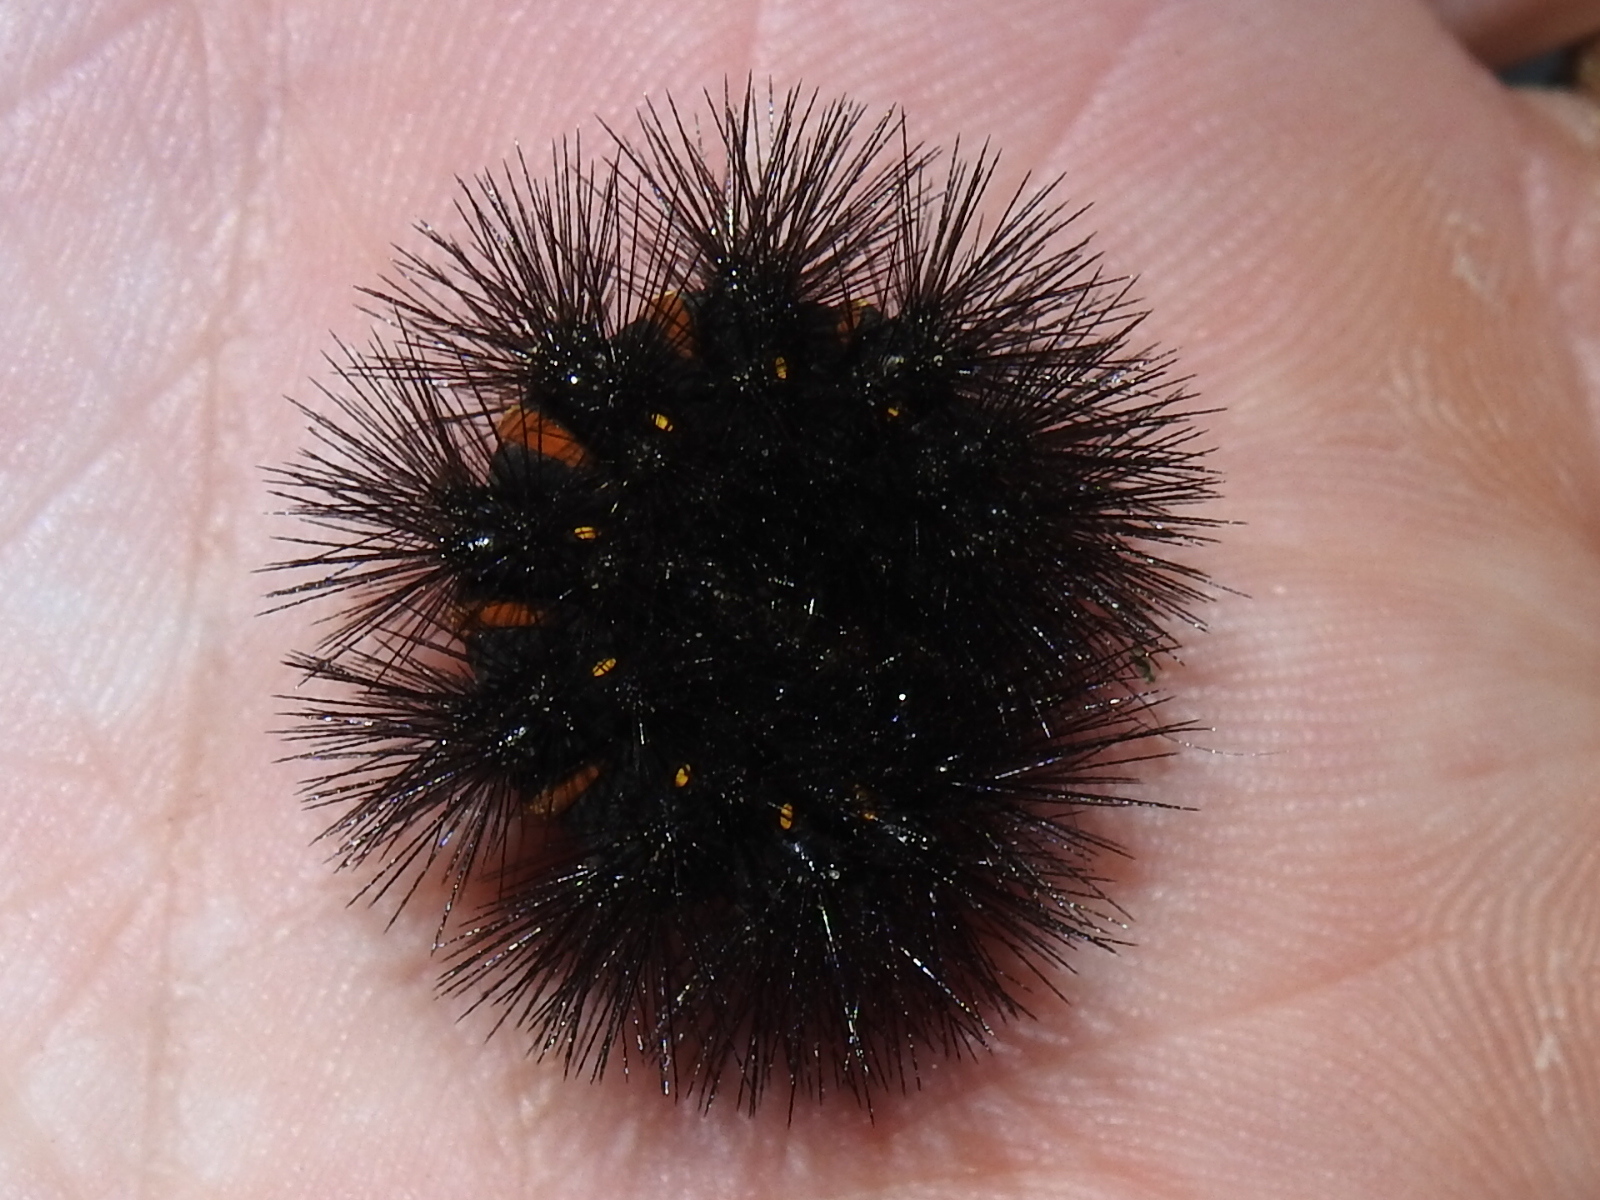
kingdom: Animalia
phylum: Arthropoda
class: Insecta
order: Lepidoptera
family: Erebidae
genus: Hypercompe
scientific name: Hypercompe scribonia
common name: Giant leopard moth
